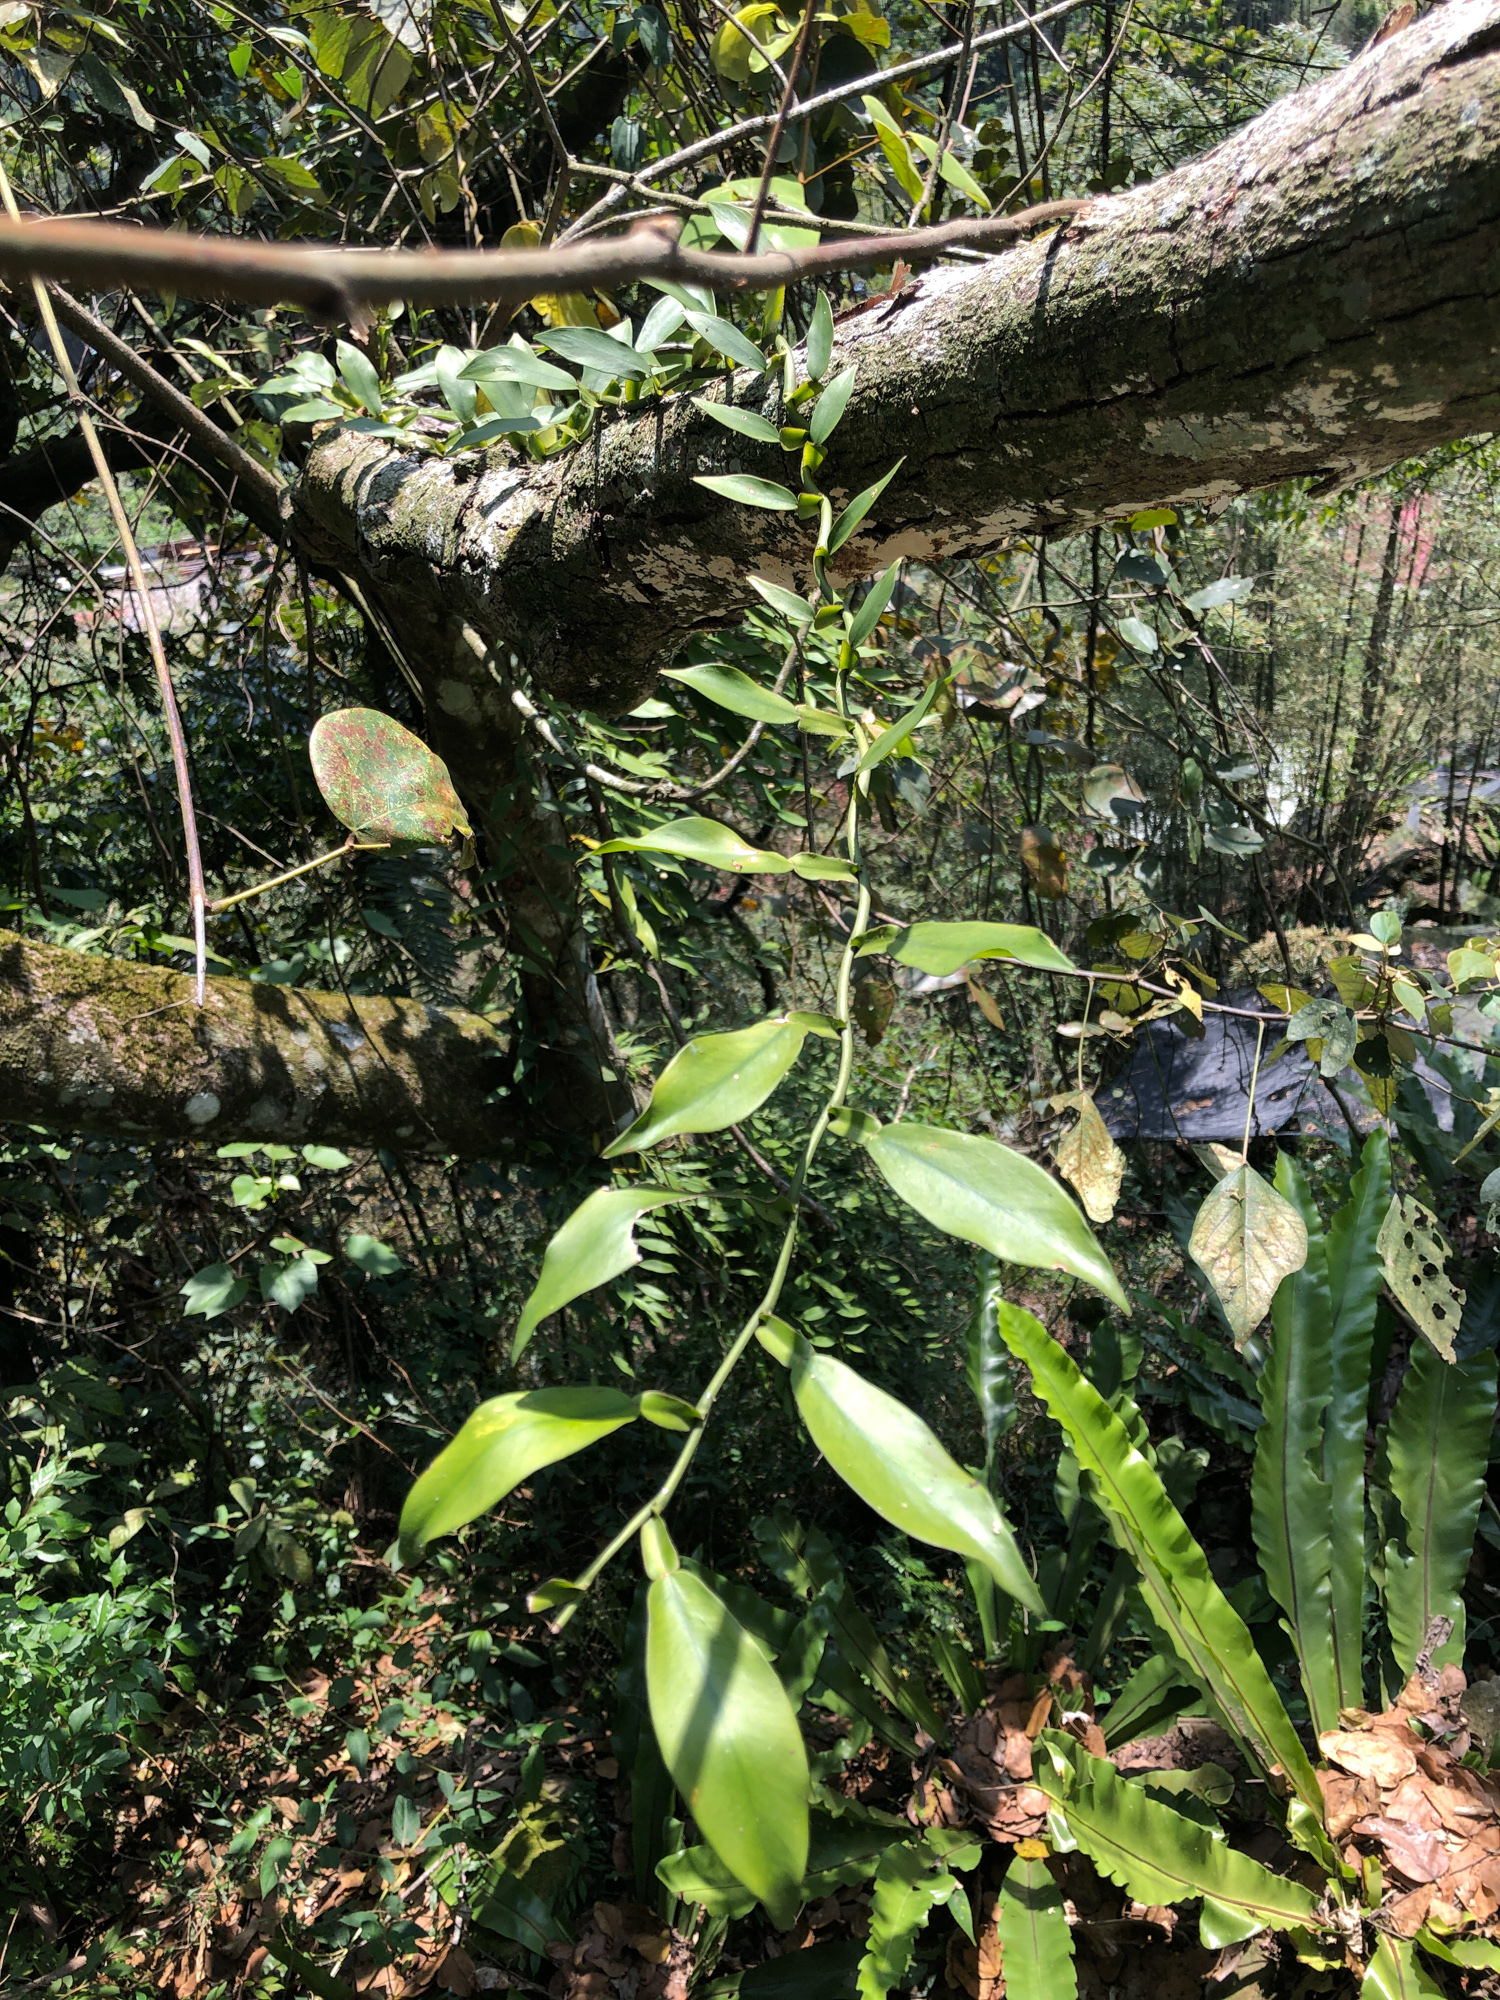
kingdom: Plantae
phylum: Tracheophyta
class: Liliopsida
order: Alismatales
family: Araceae
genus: Pothos
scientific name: Pothos chinensis
